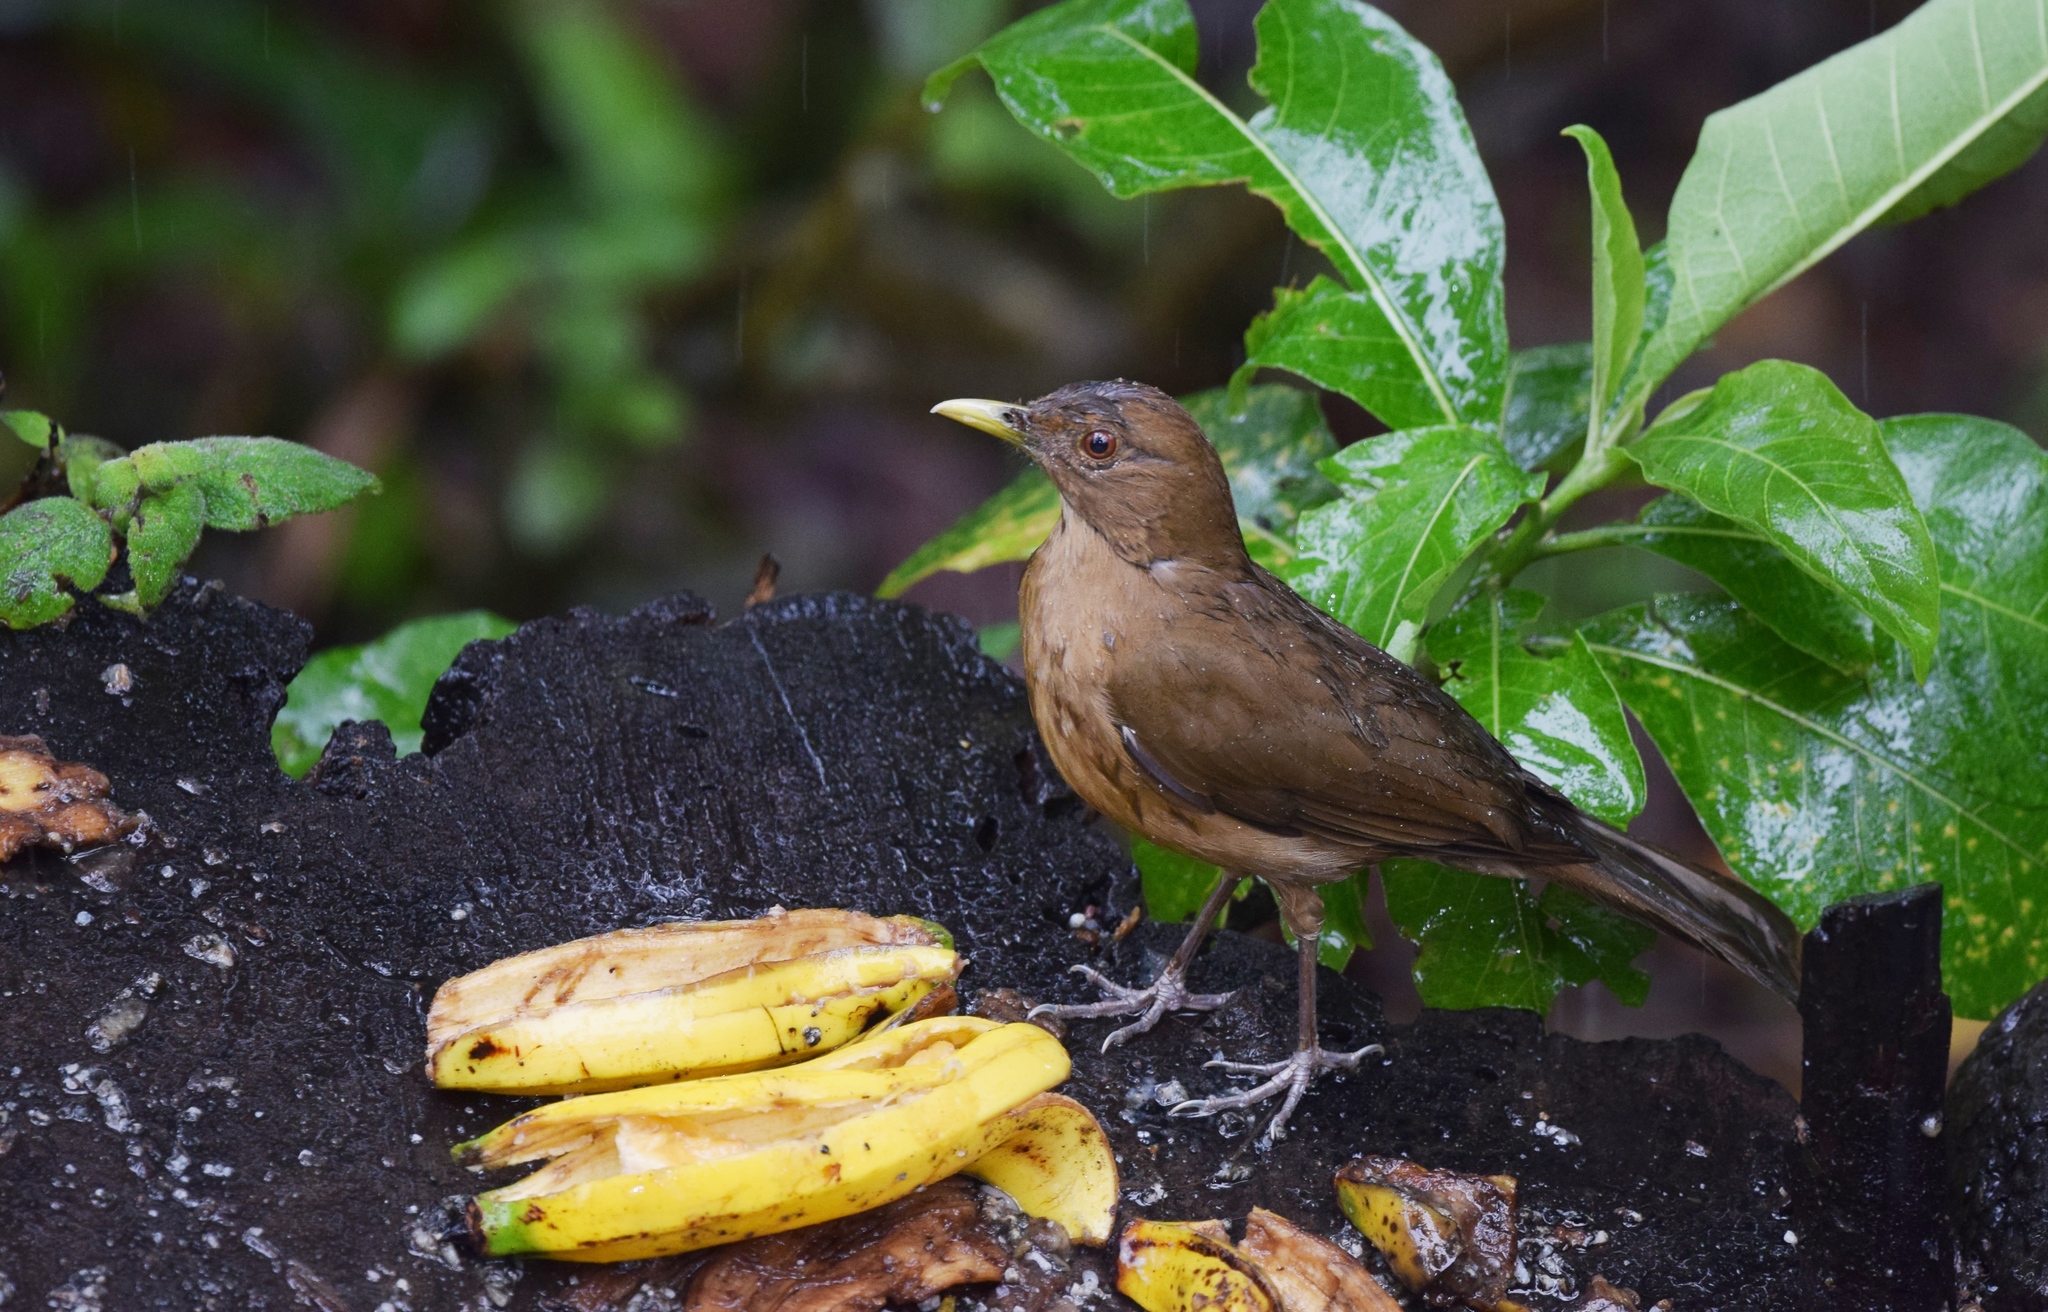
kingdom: Animalia
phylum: Chordata
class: Aves
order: Passeriformes
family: Turdidae
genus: Turdus
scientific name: Turdus grayi
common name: Clay-colored thrush
